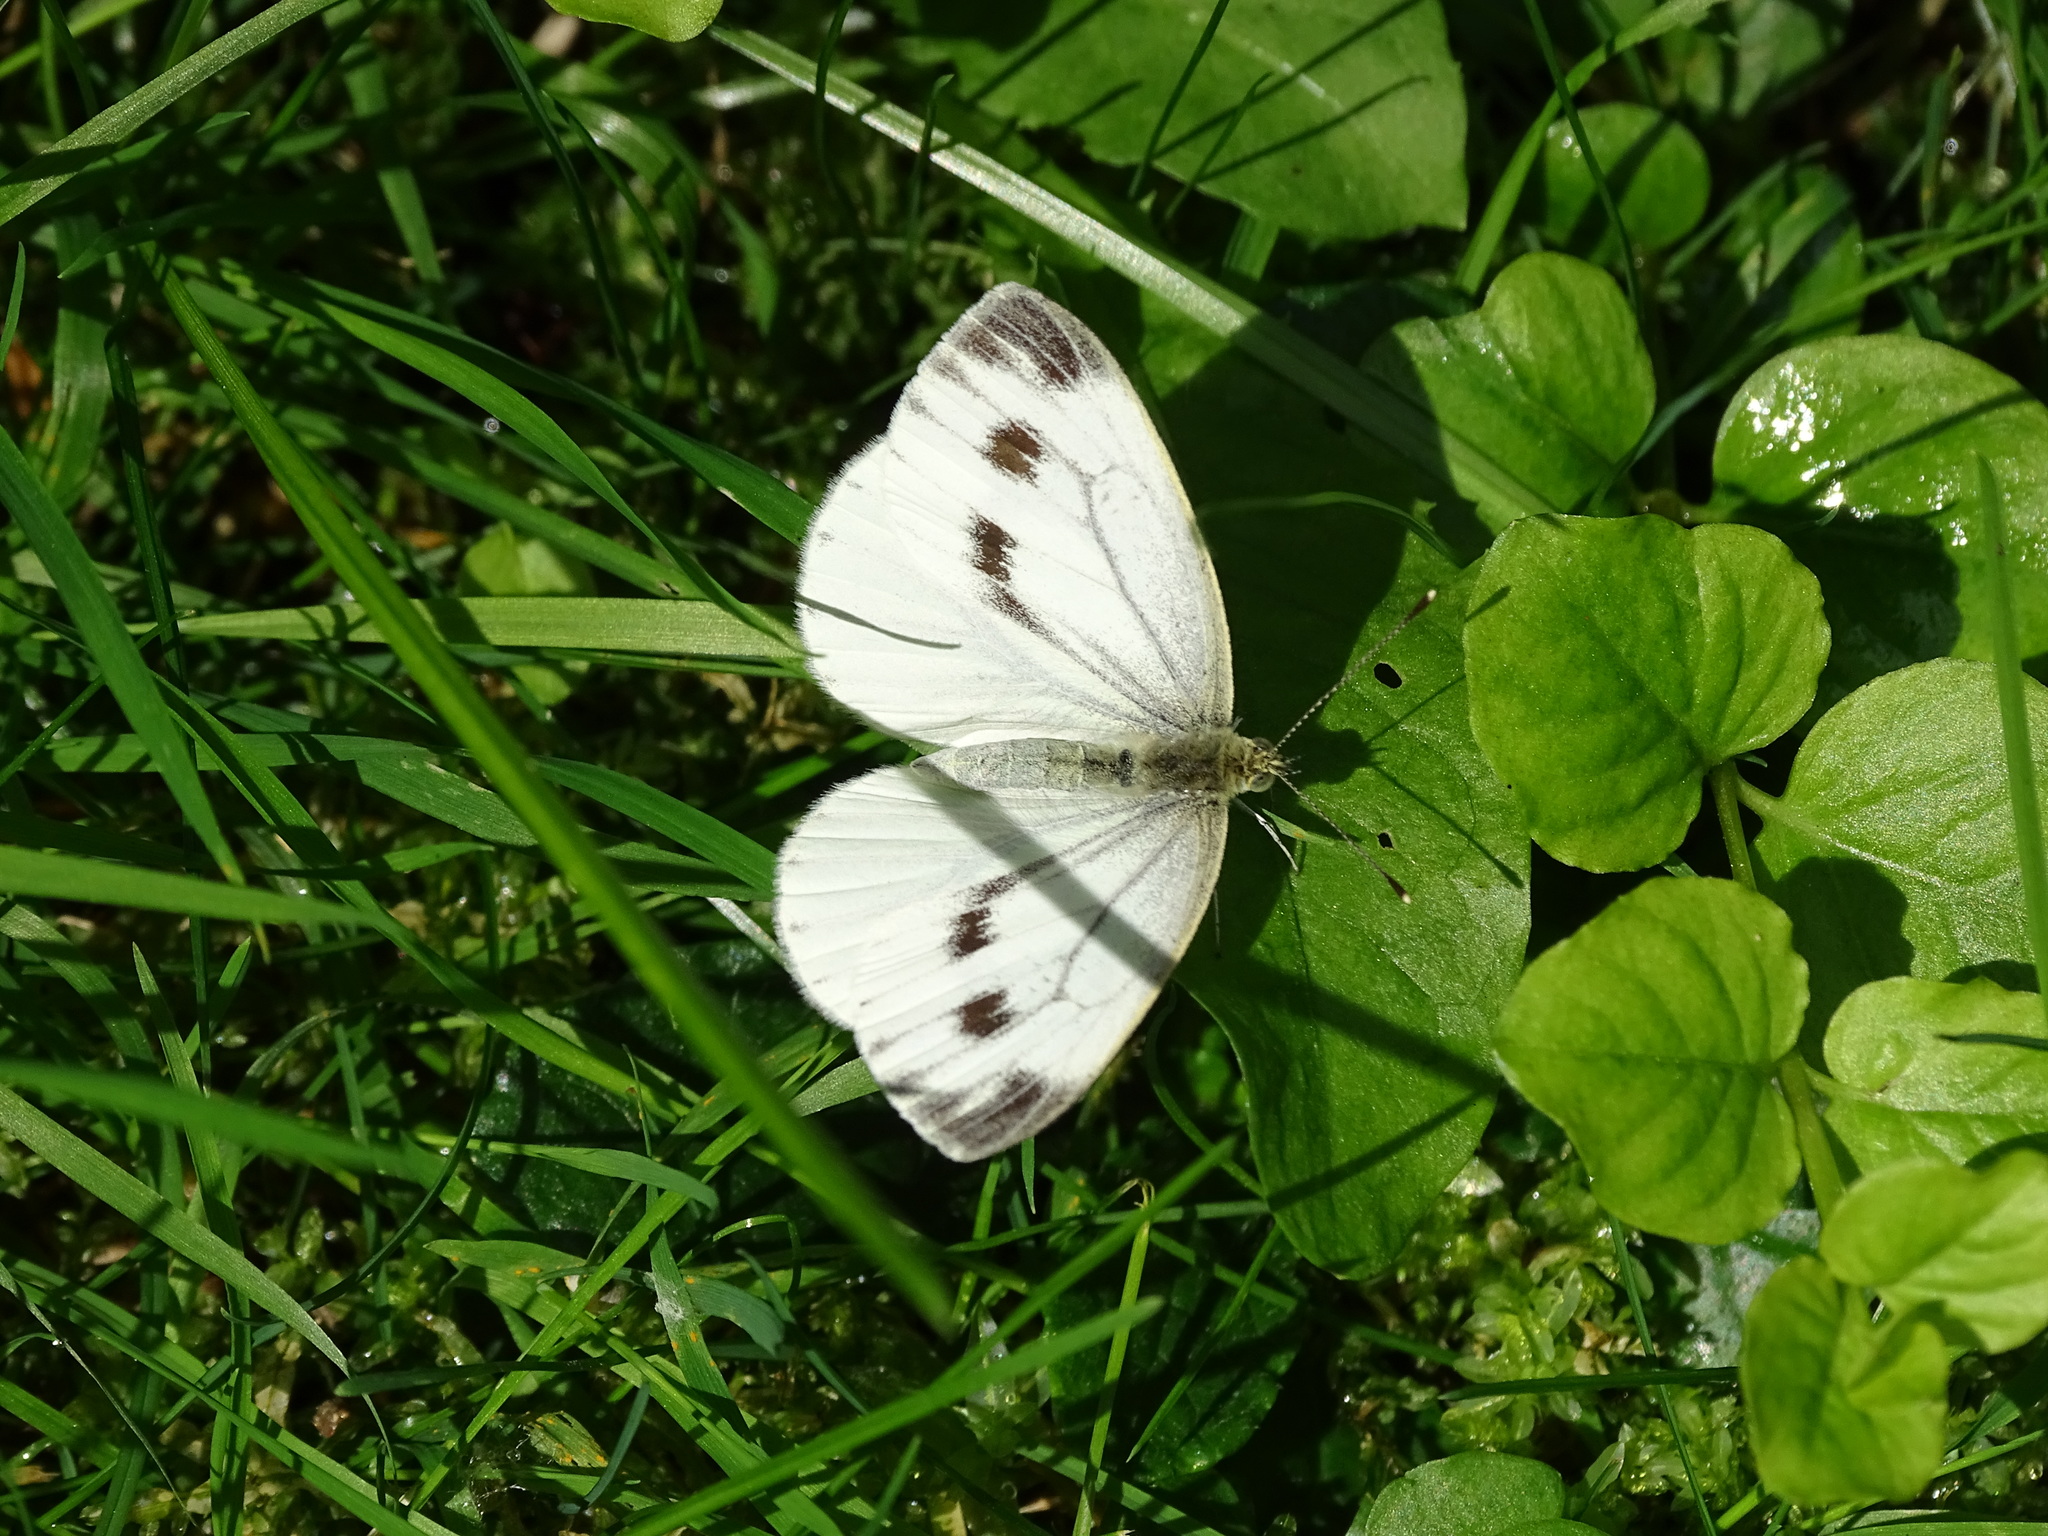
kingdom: Animalia
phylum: Arthropoda
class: Insecta
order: Lepidoptera
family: Pieridae
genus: Pieris
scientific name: Pieris napi
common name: Green-veined white
